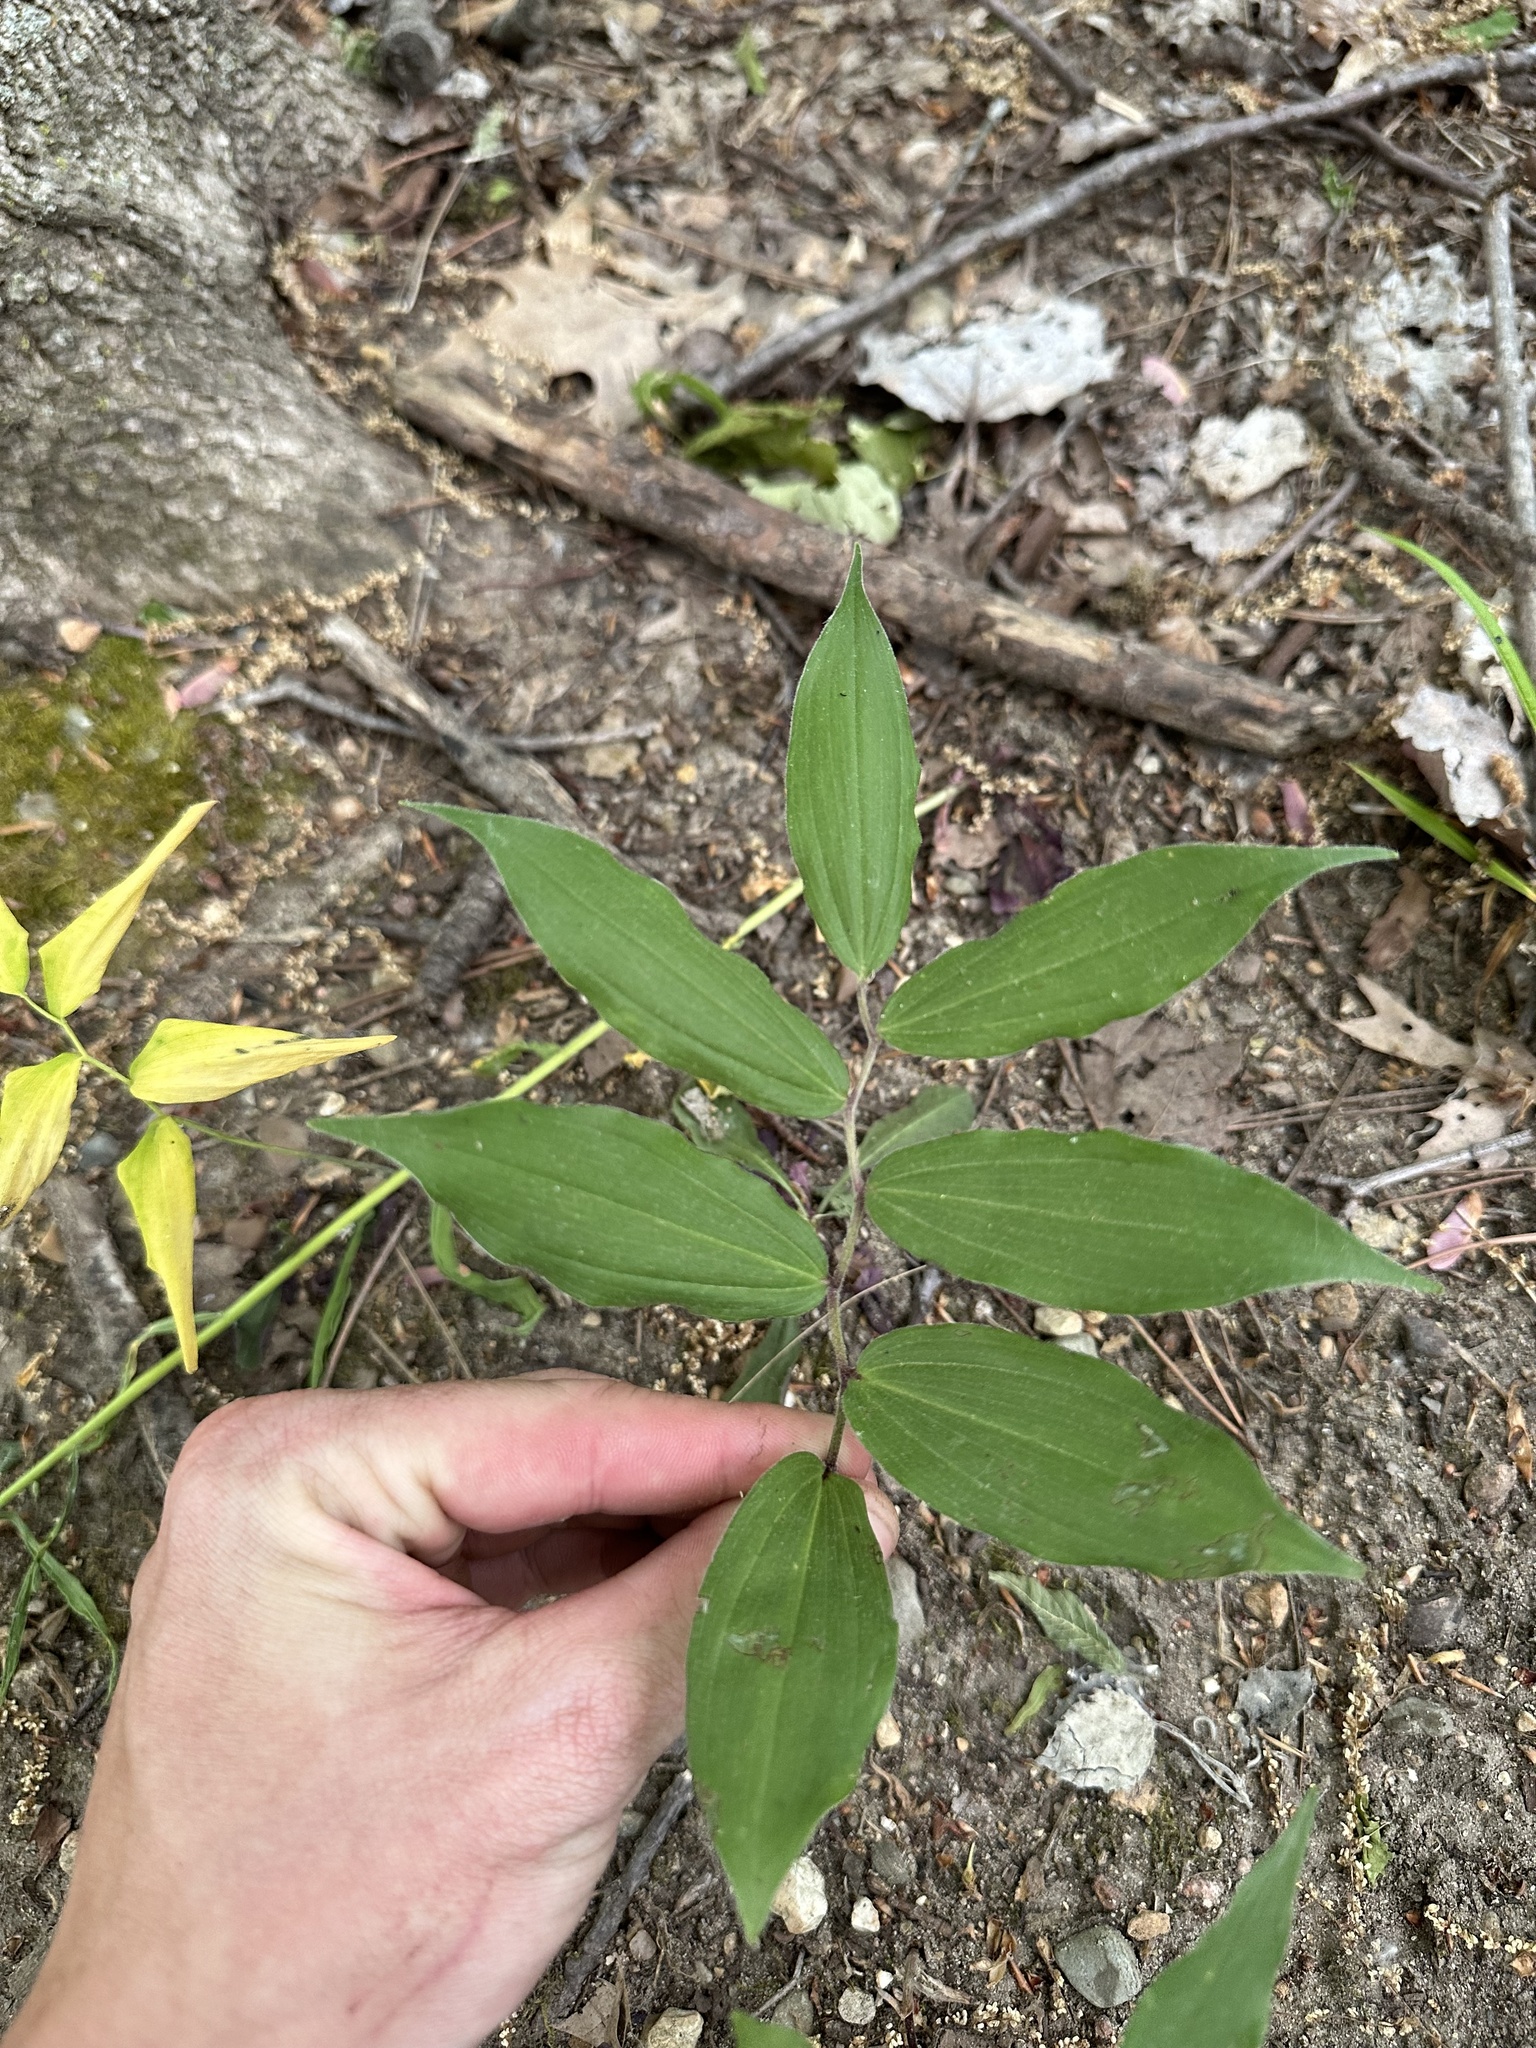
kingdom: Plantae
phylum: Tracheophyta
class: Liliopsida
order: Asparagales
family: Asparagaceae
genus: Maianthemum
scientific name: Maianthemum racemosum
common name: False spikenard
